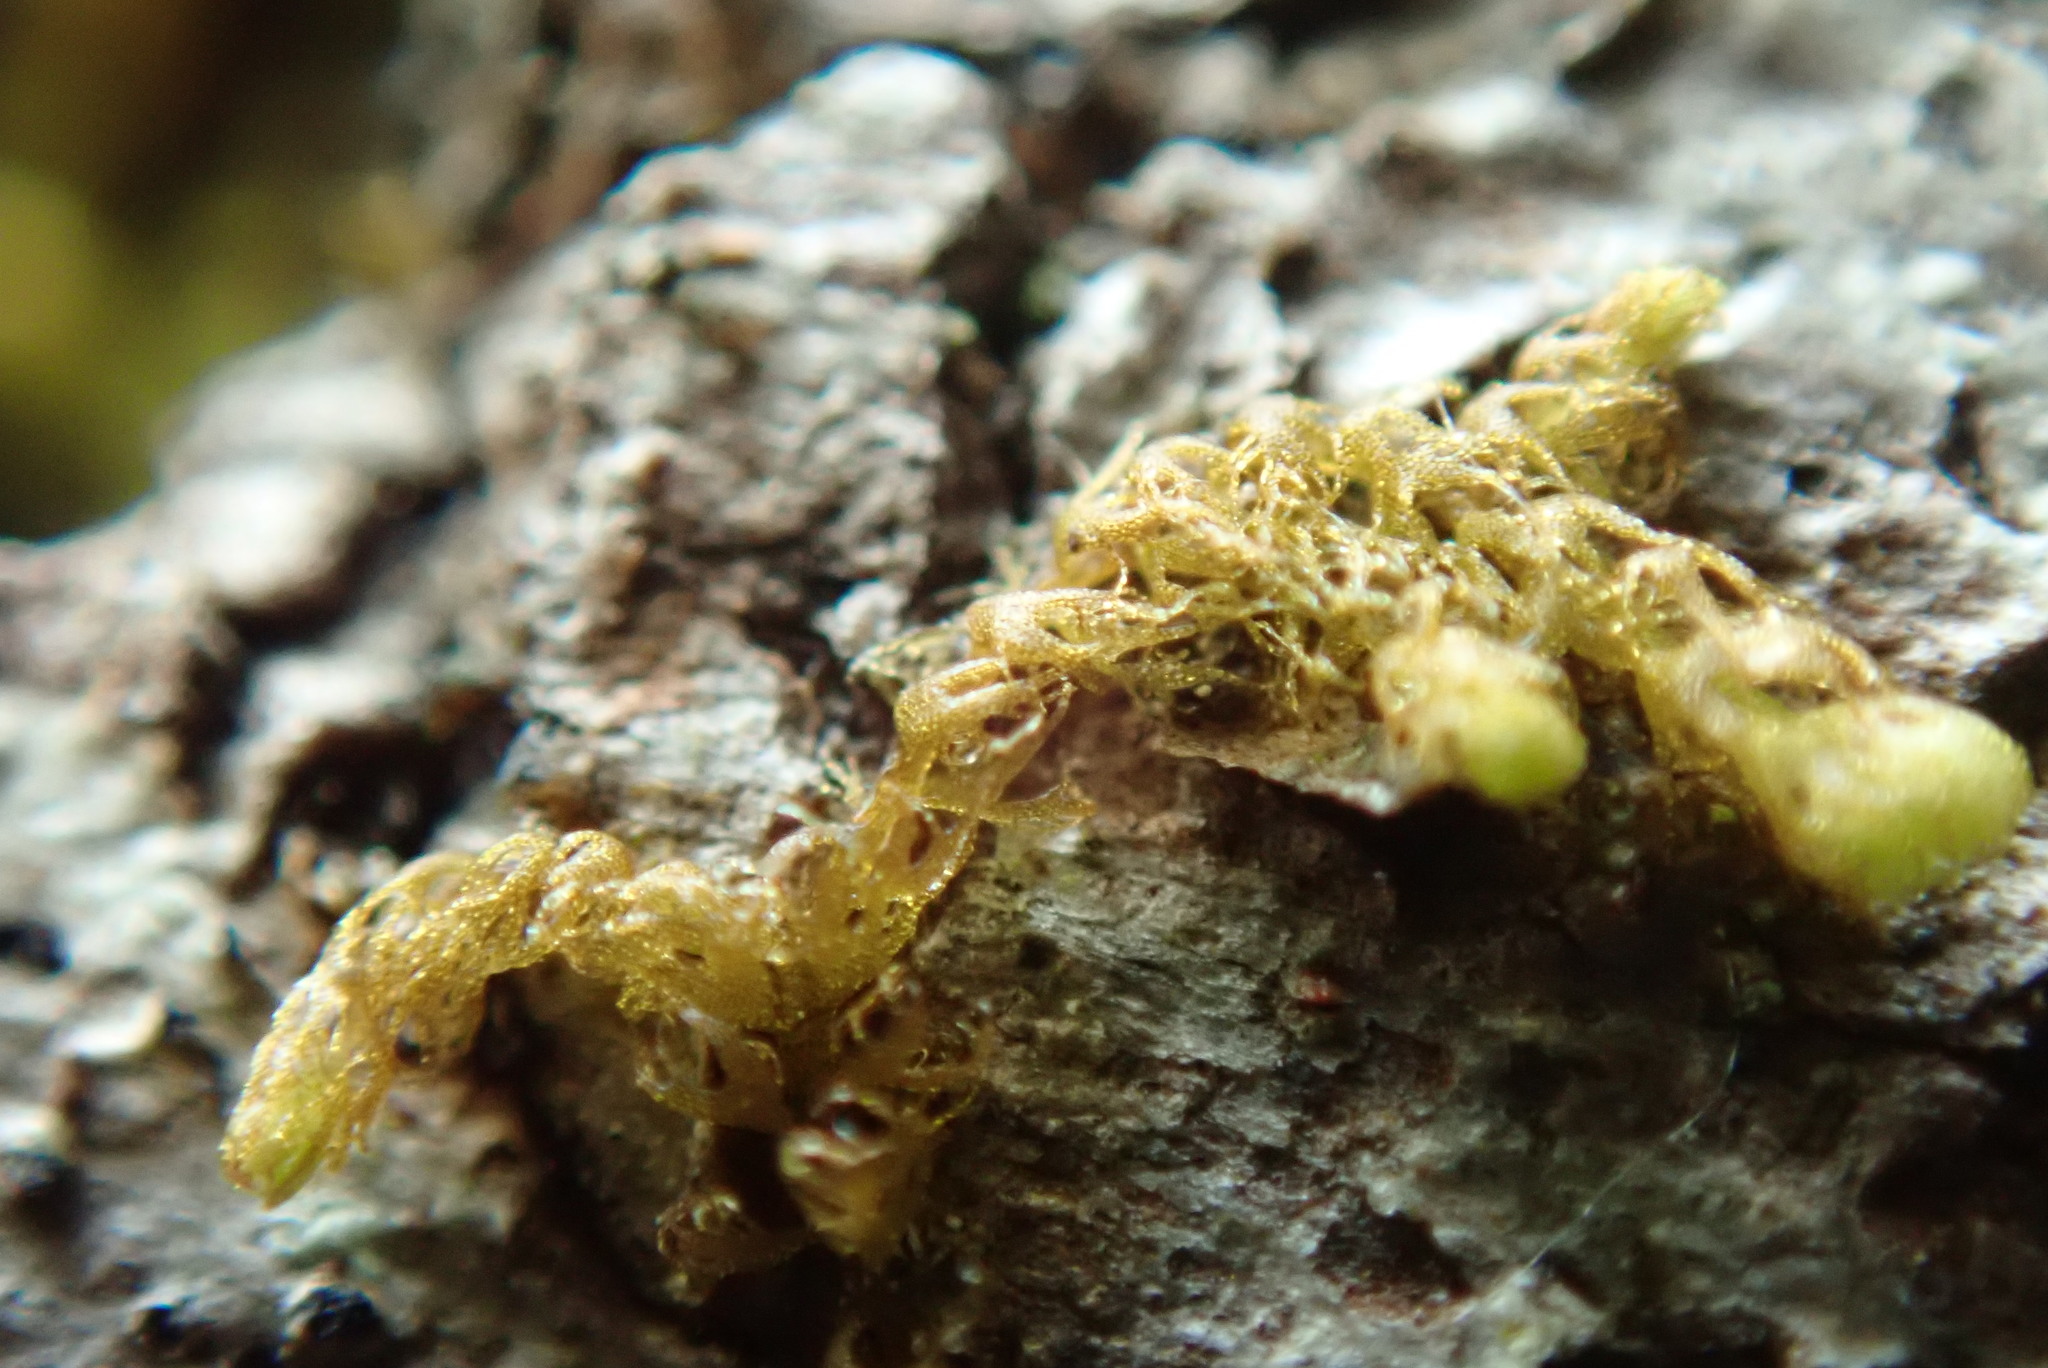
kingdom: Plantae
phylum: Marchantiophyta
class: Jungermanniopsida
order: Ptilidiales
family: Ptilidiaceae
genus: Ptilidium
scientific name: Ptilidium californicum
